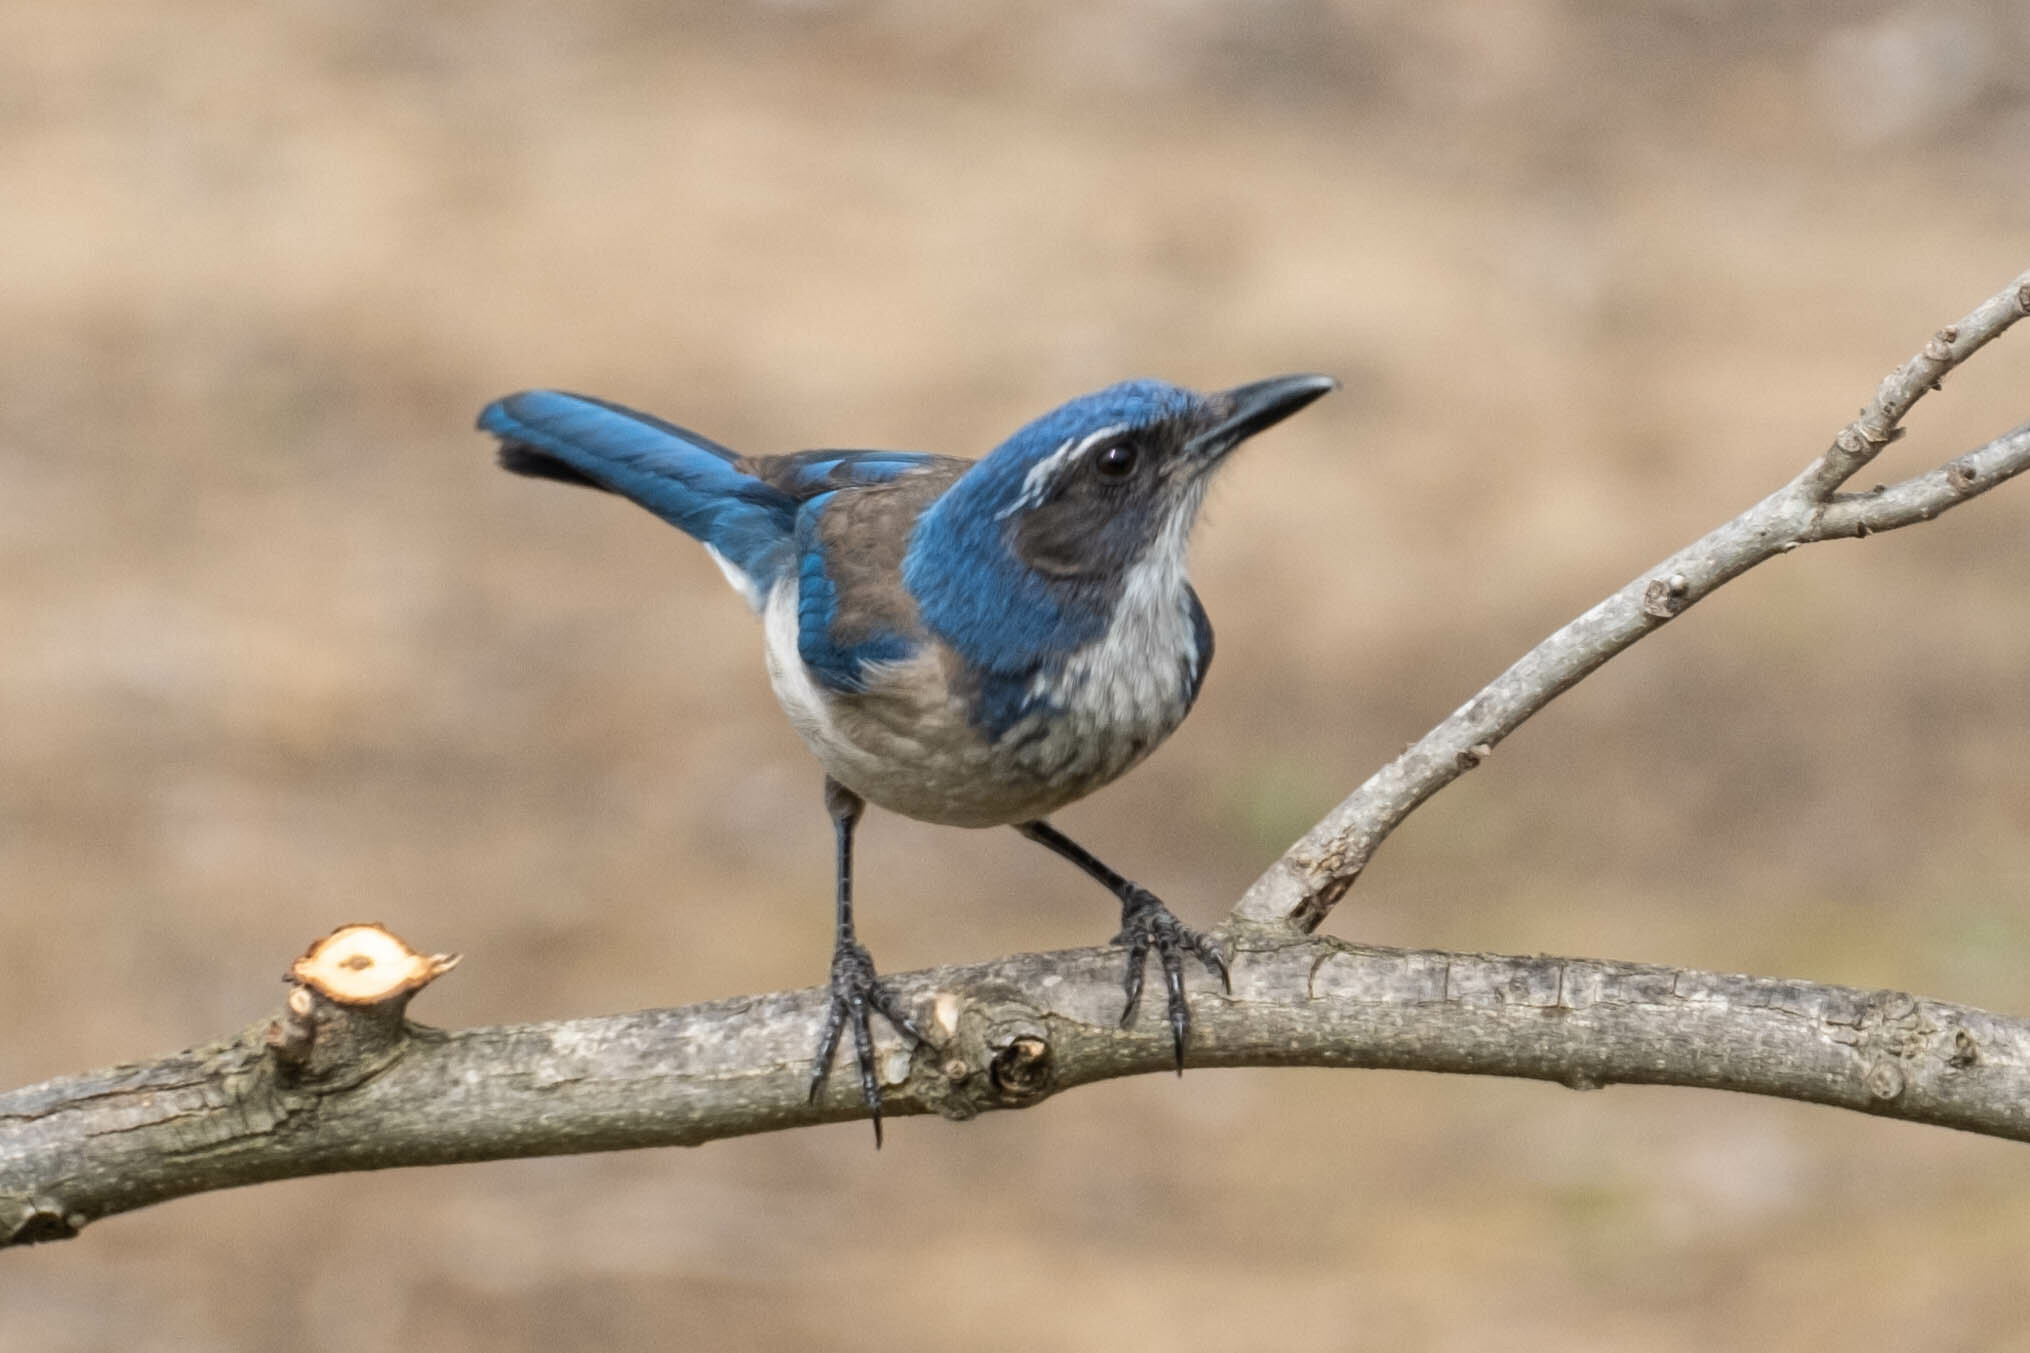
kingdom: Animalia
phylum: Chordata
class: Aves
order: Passeriformes
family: Corvidae
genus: Aphelocoma
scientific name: Aphelocoma californica
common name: California scrub-jay
